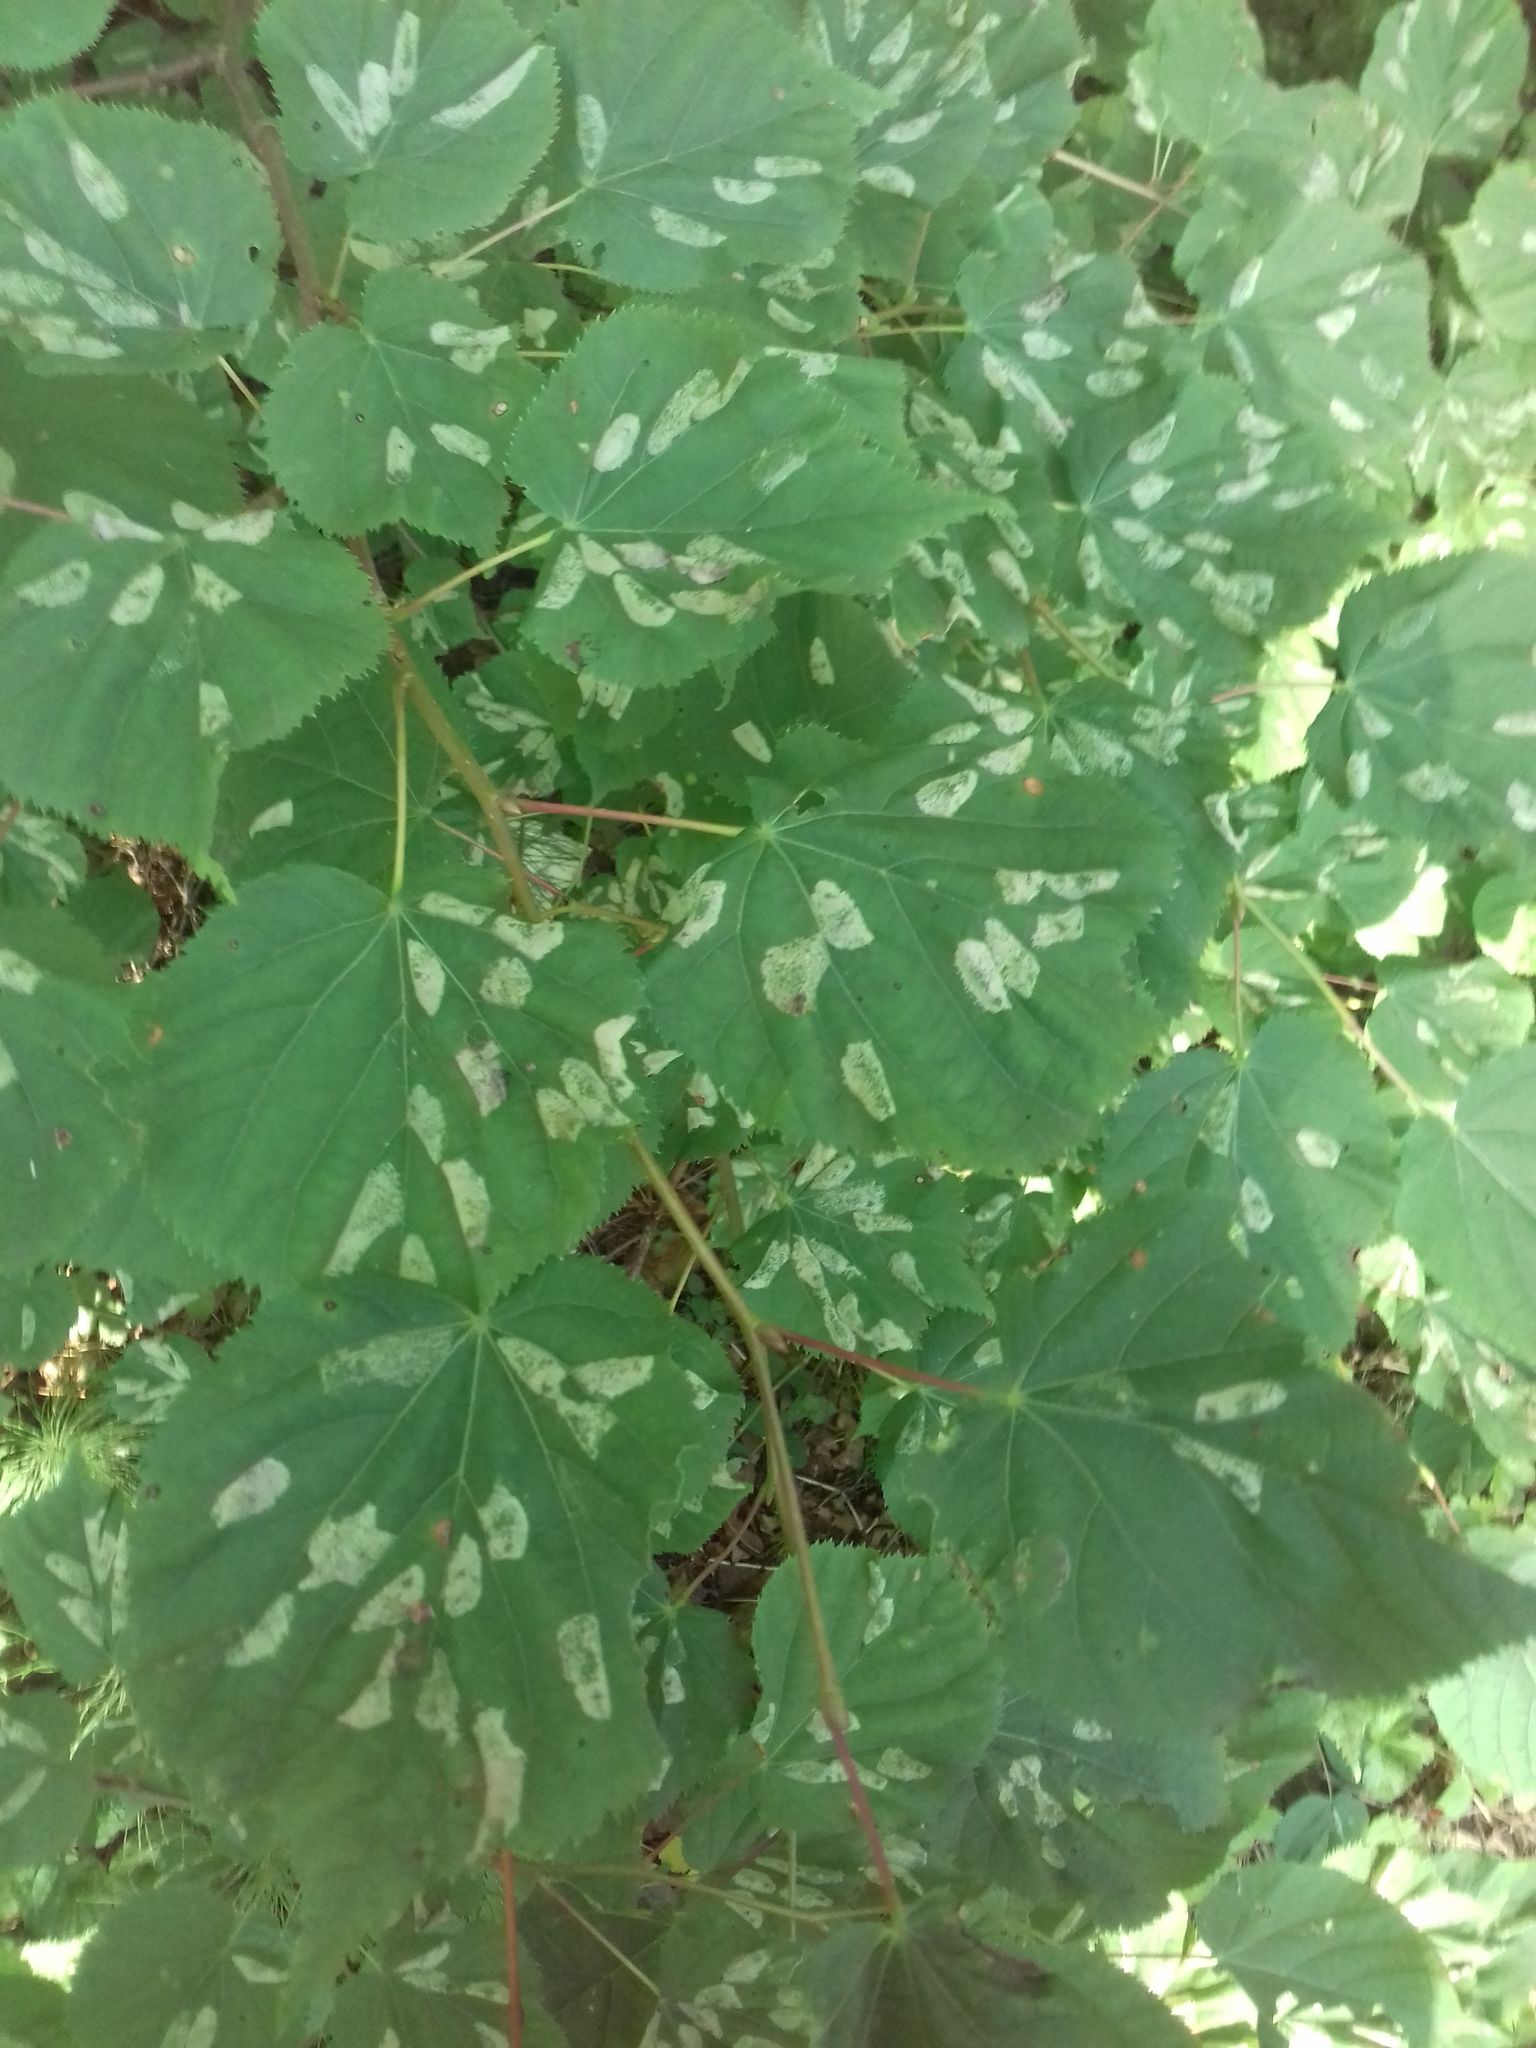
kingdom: Animalia
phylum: Arthropoda
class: Insecta
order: Lepidoptera
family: Gracillariidae
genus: Phyllonorycter
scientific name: Phyllonorycter issikii
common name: Linden midget
